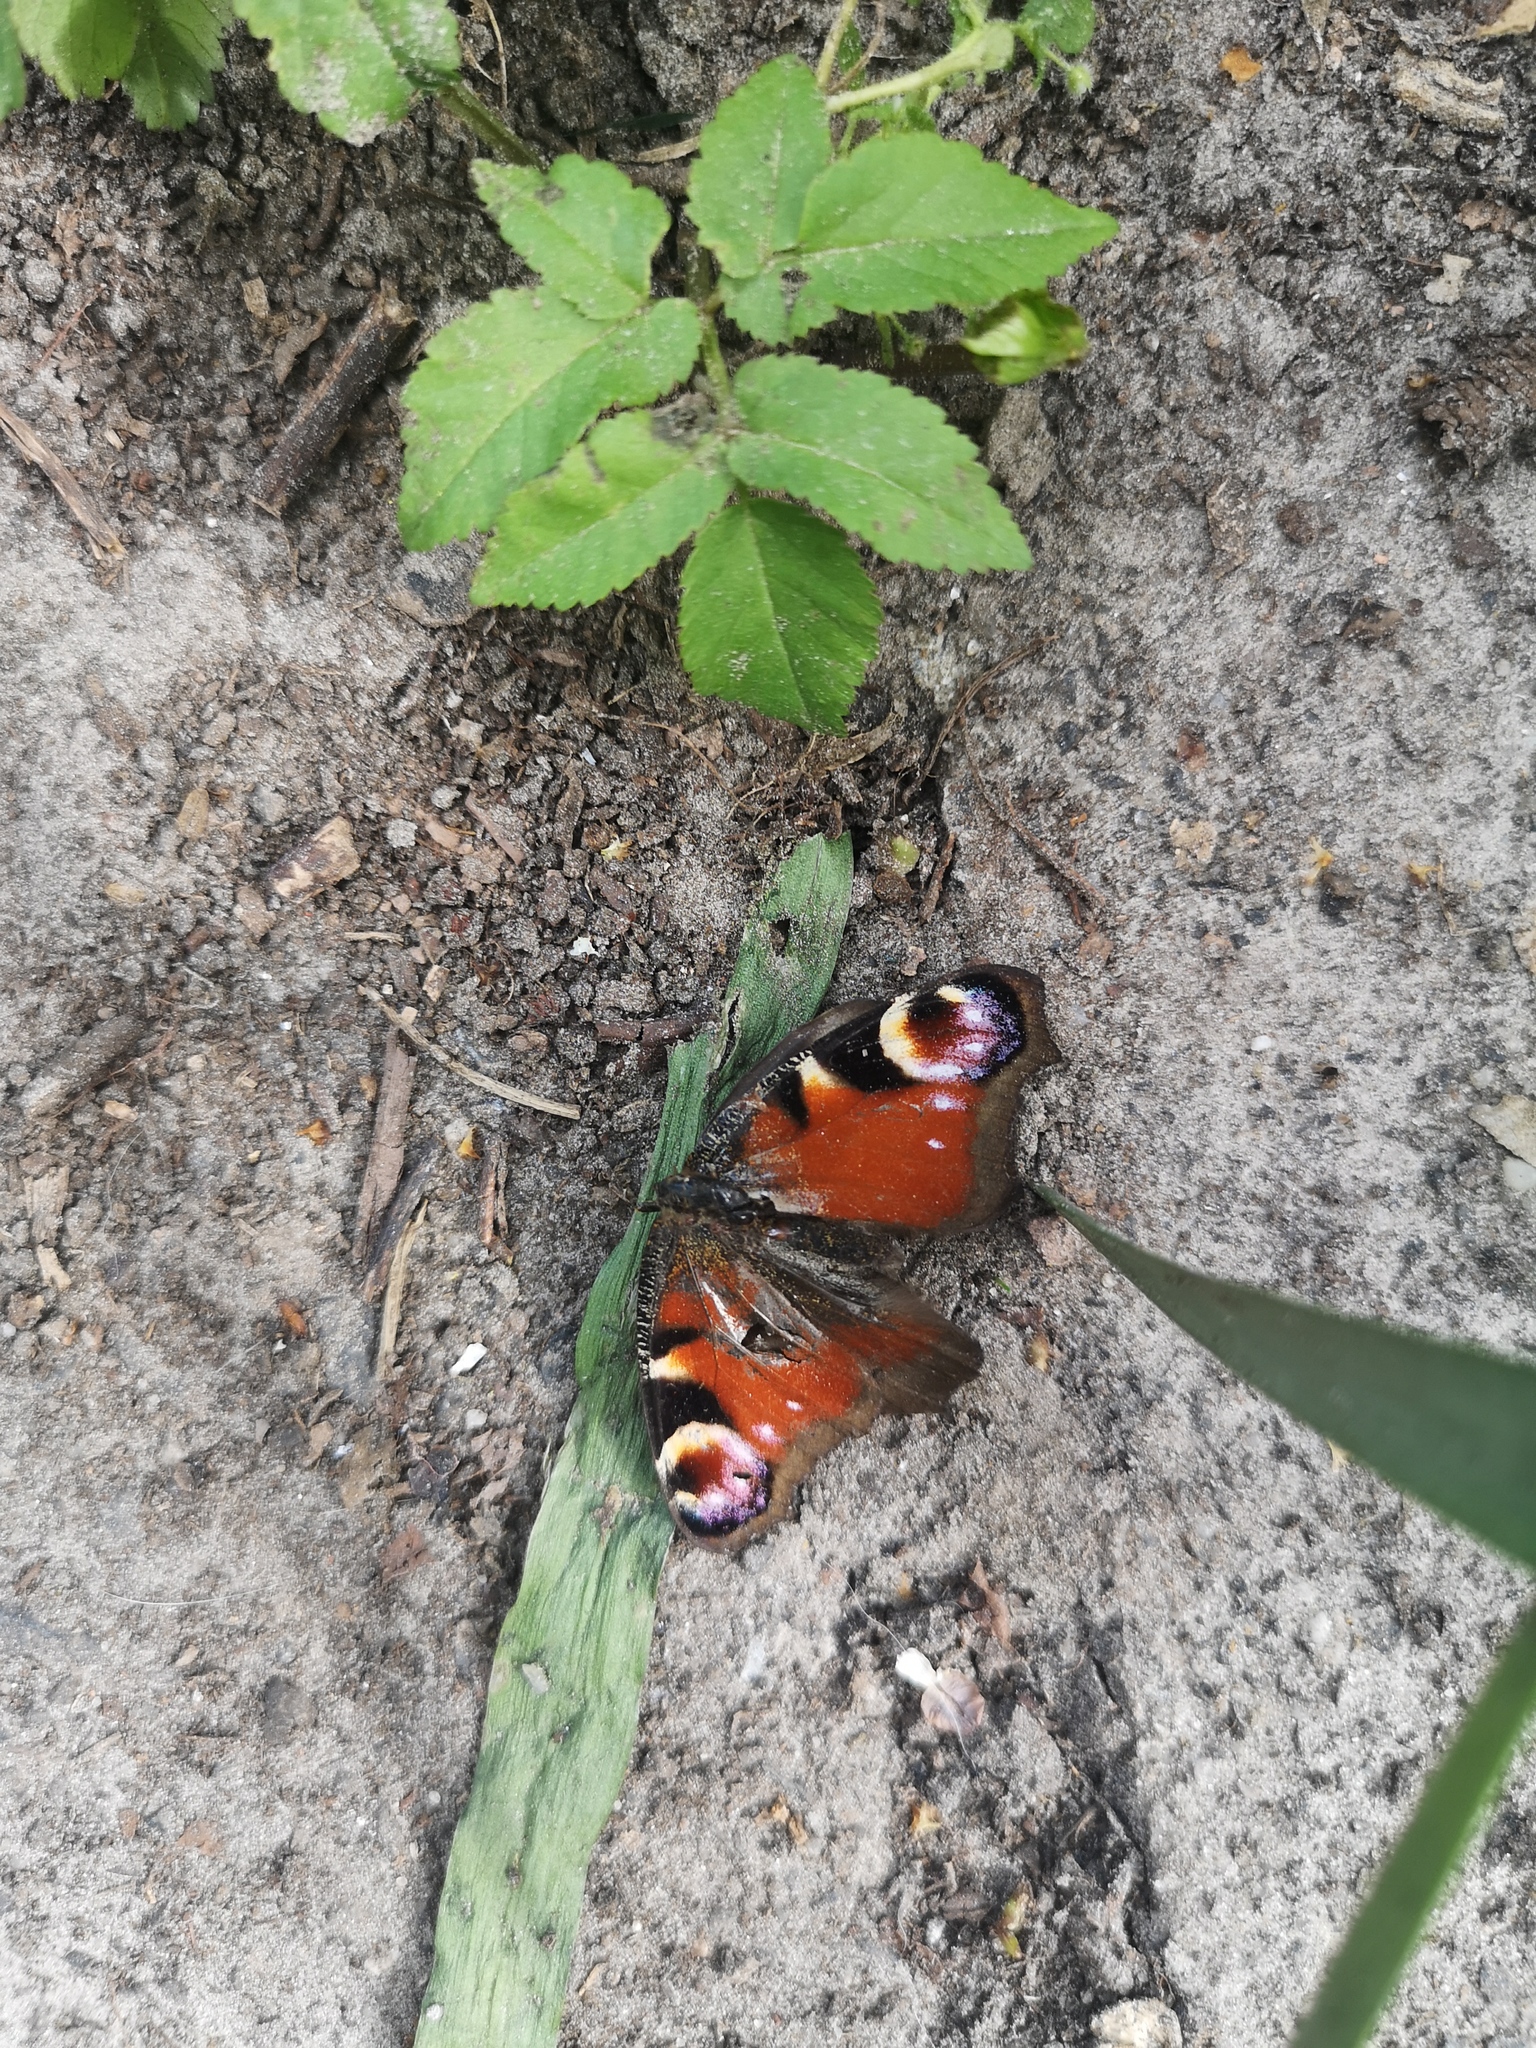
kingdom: Animalia
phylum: Arthropoda
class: Insecta
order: Lepidoptera
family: Nymphalidae
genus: Aglais
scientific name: Aglais io
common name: Peacock
